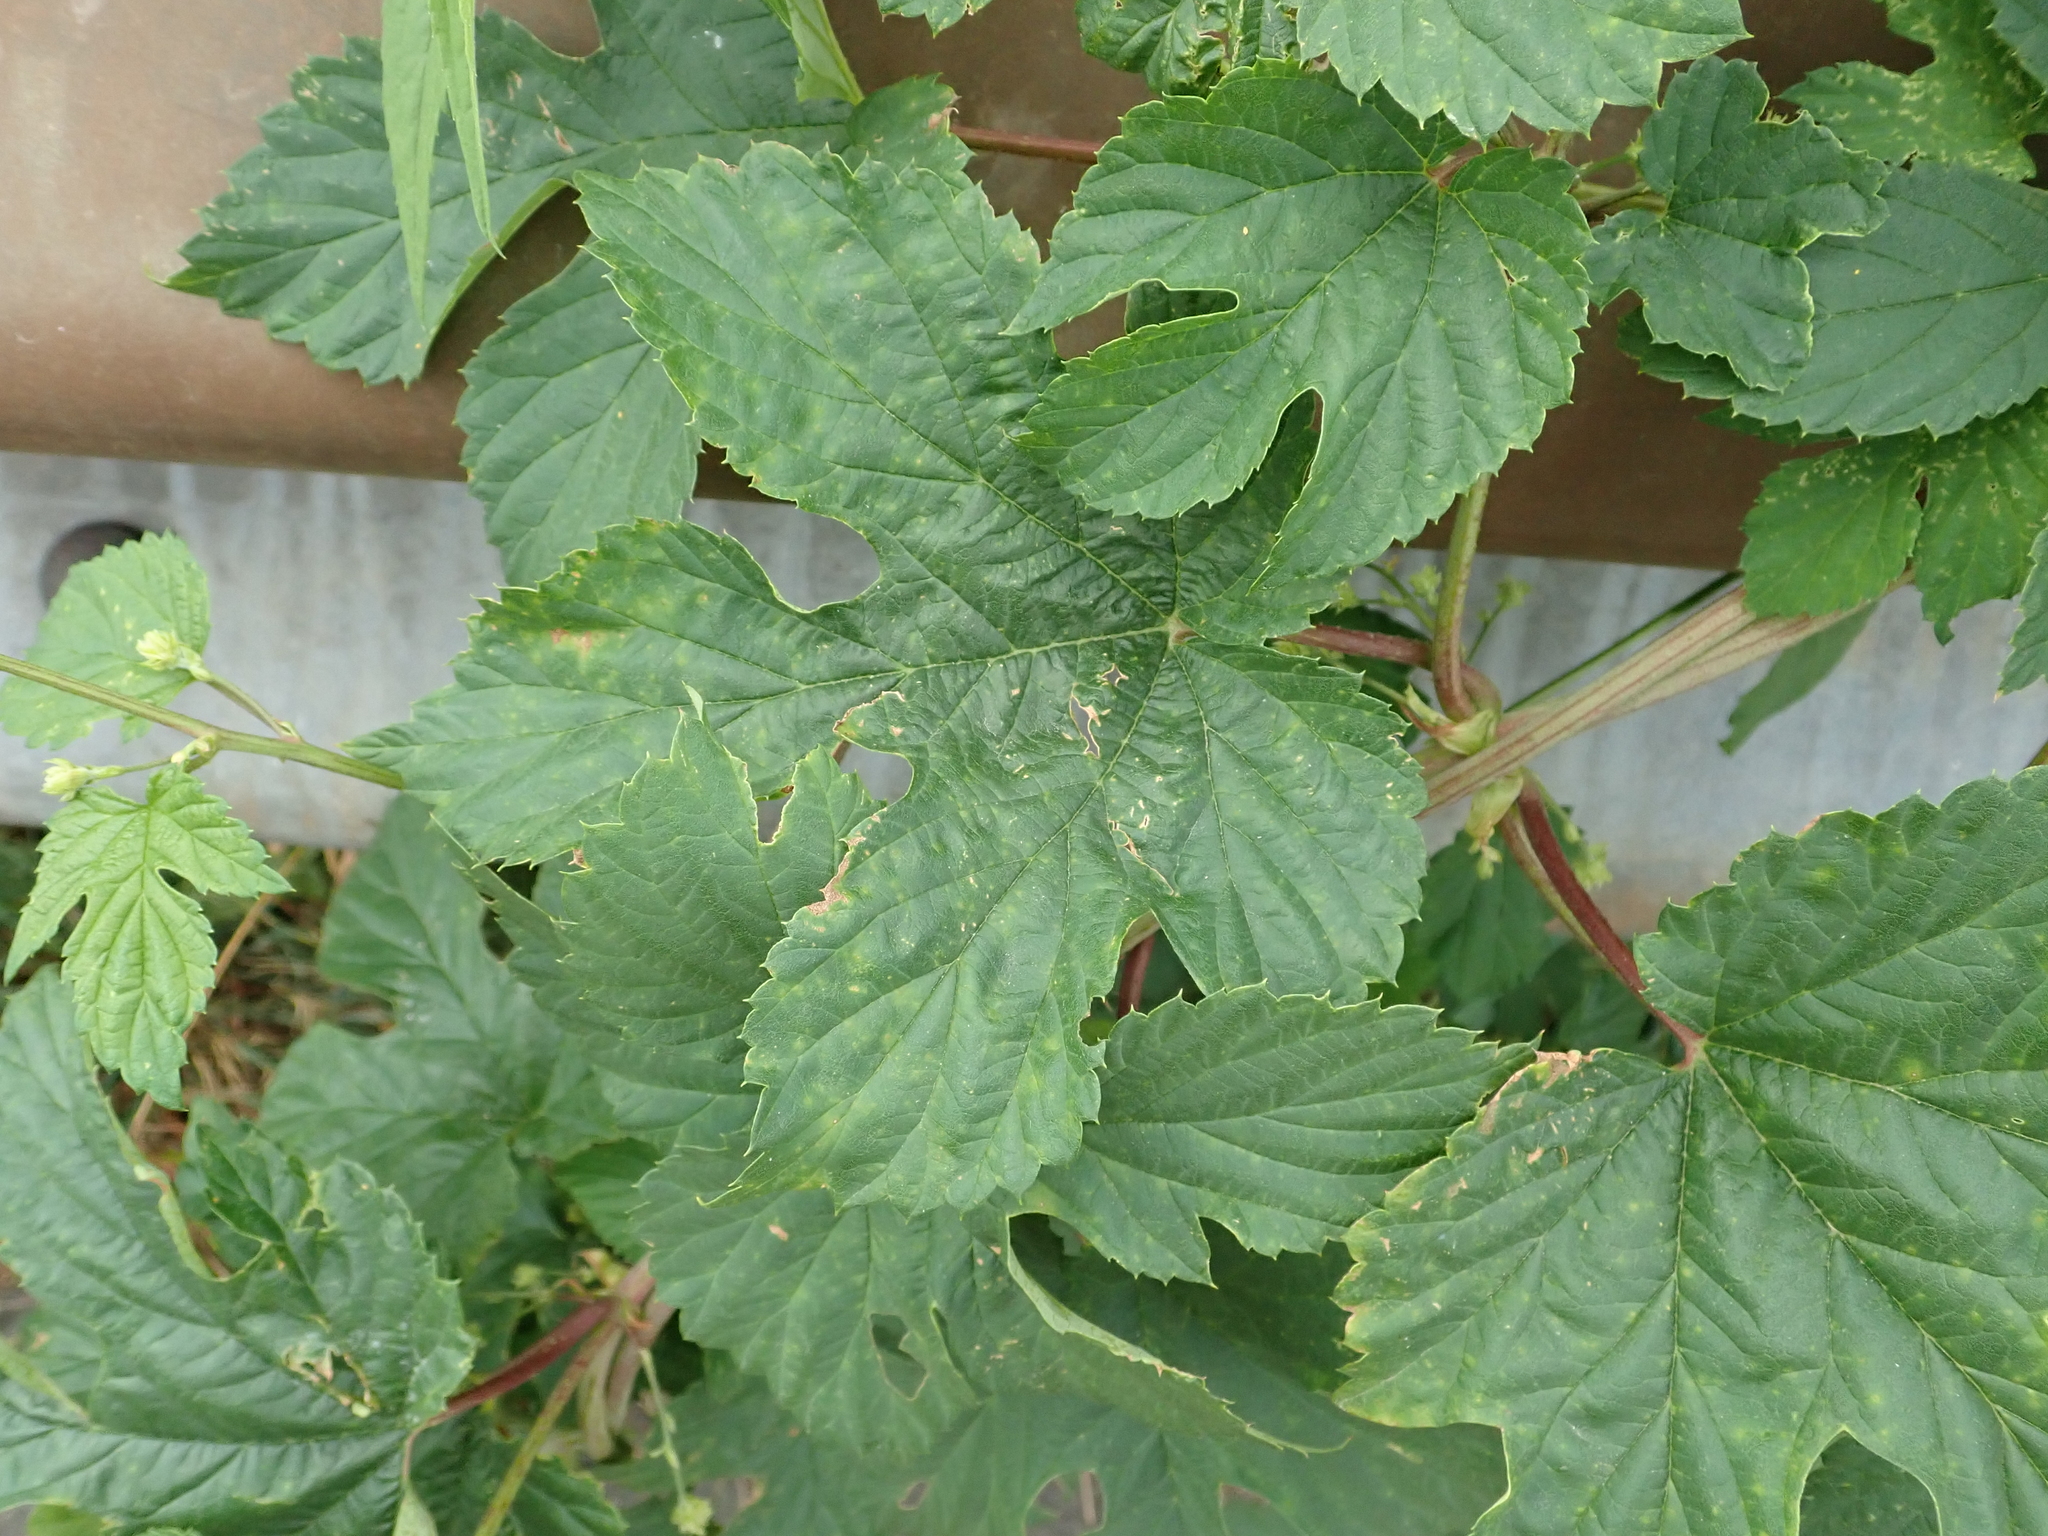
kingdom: Plantae
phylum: Tracheophyta
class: Magnoliopsida
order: Rosales
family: Cannabaceae
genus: Humulus
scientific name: Humulus lupulus
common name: Hop
